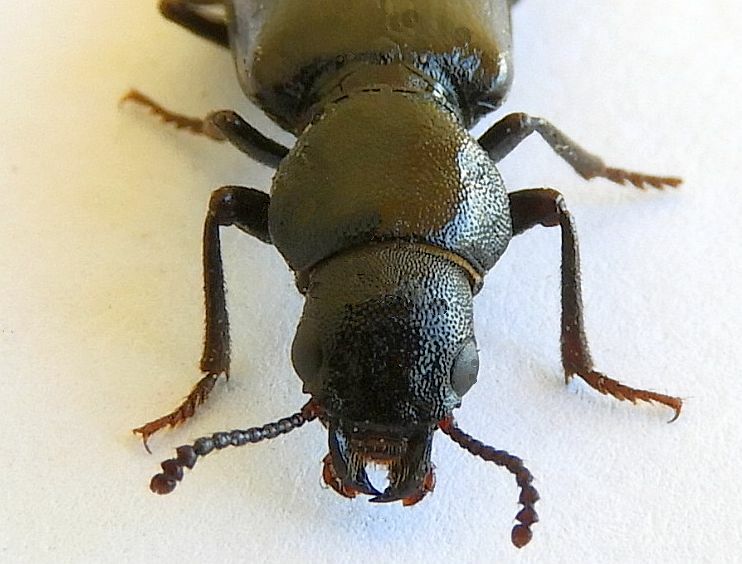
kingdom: Animalia
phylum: Arthropoda
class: Insecta
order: Coleoptera
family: Boridae
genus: Lecontia
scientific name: Lecontia discicollis
